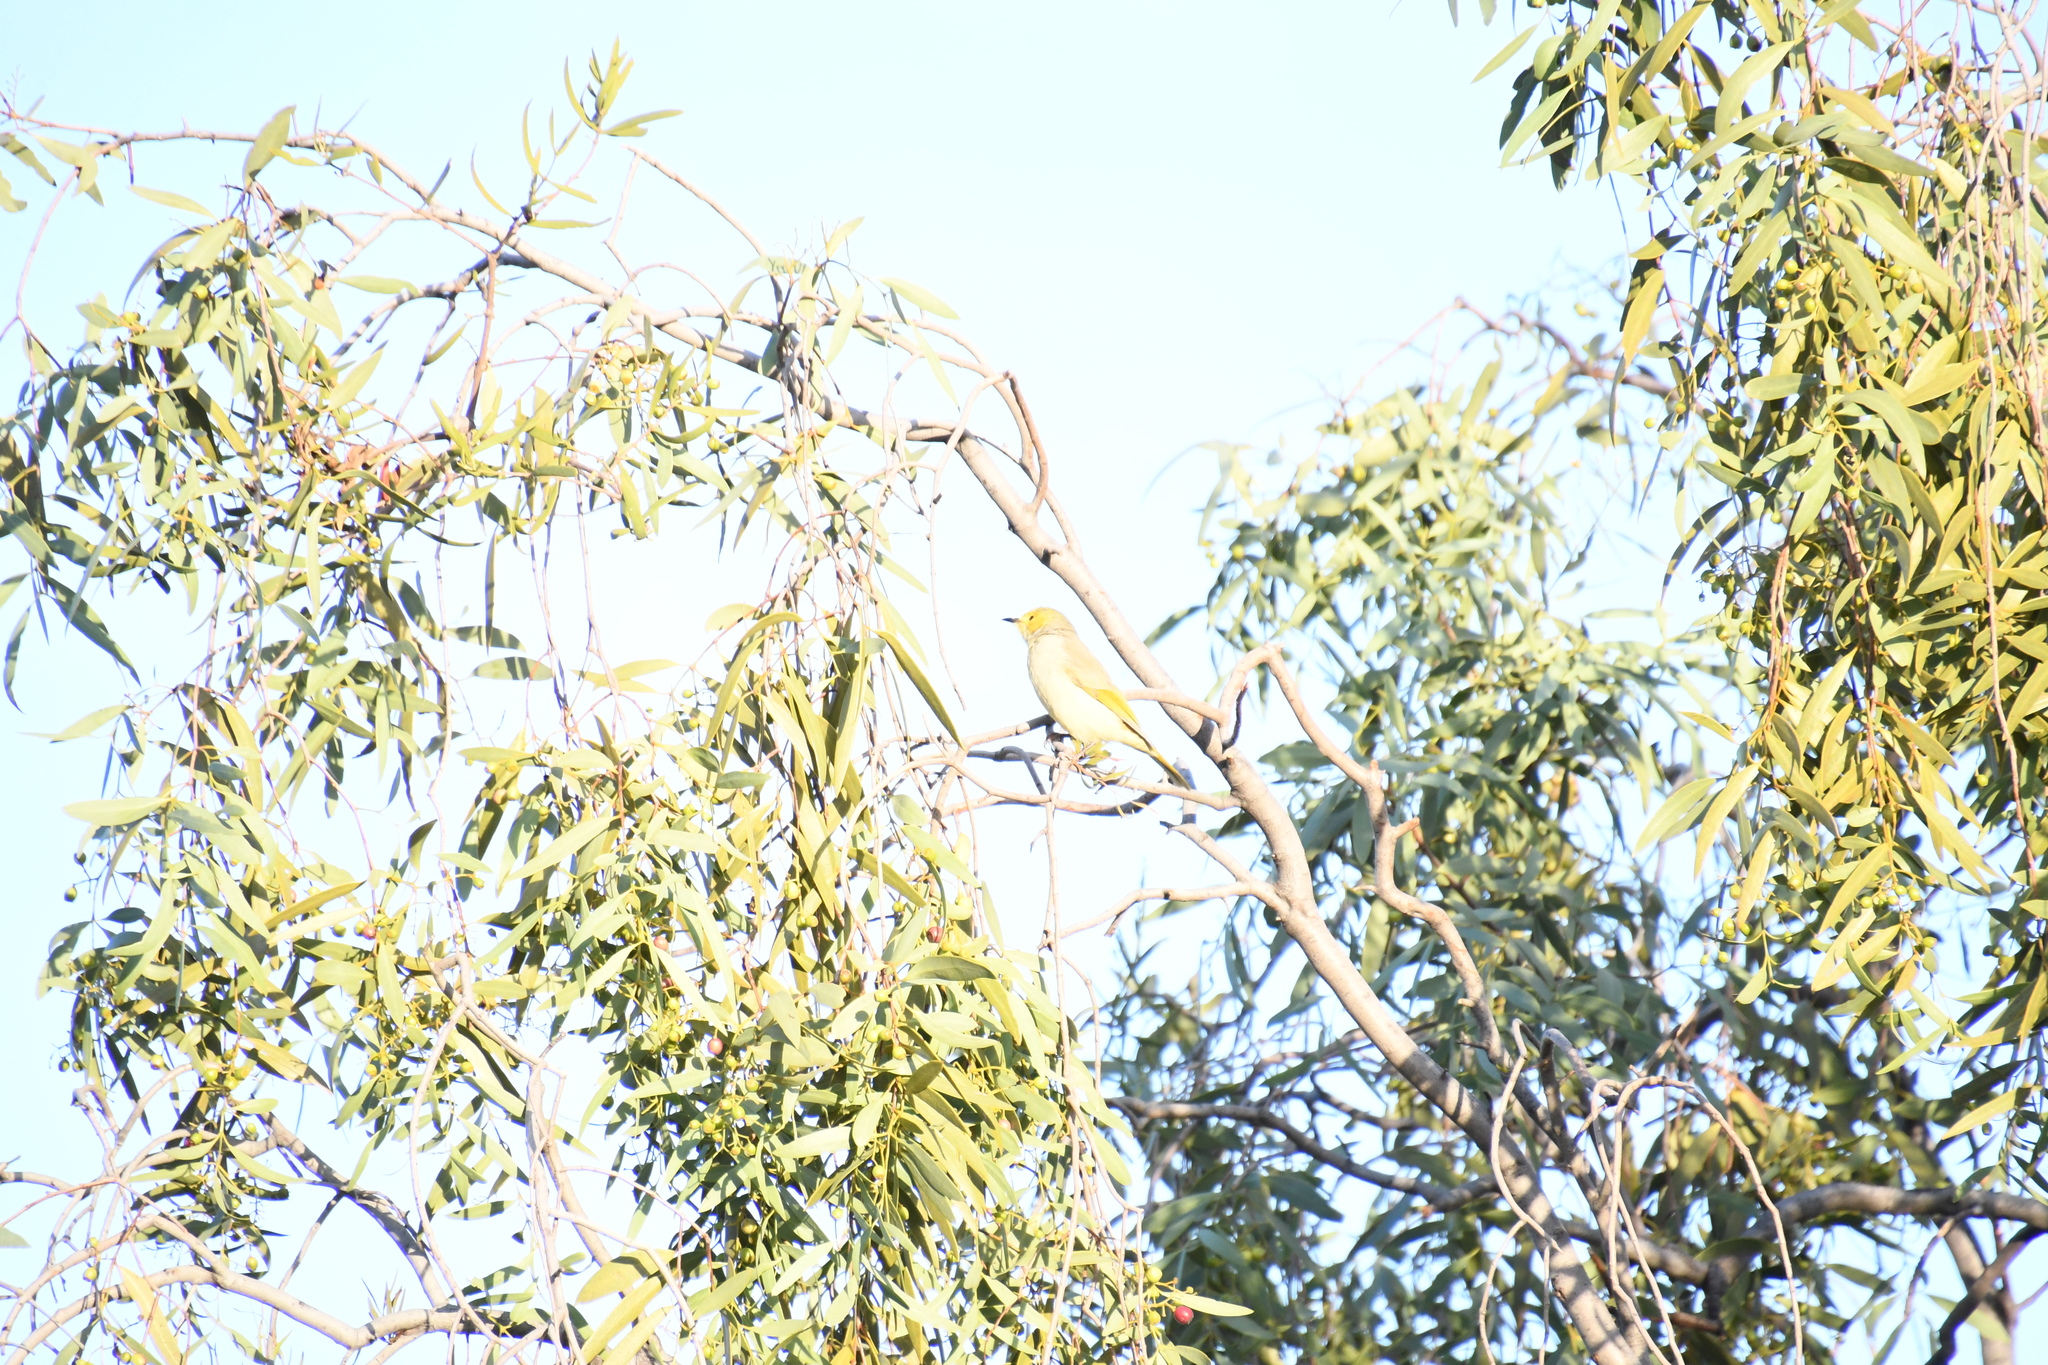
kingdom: Animalia
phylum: Chordata
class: Aves
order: Passeriformes
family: Meliphagidae
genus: Ptilotula
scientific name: Ptilotula penicillata
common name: White-plumed honeyeater
